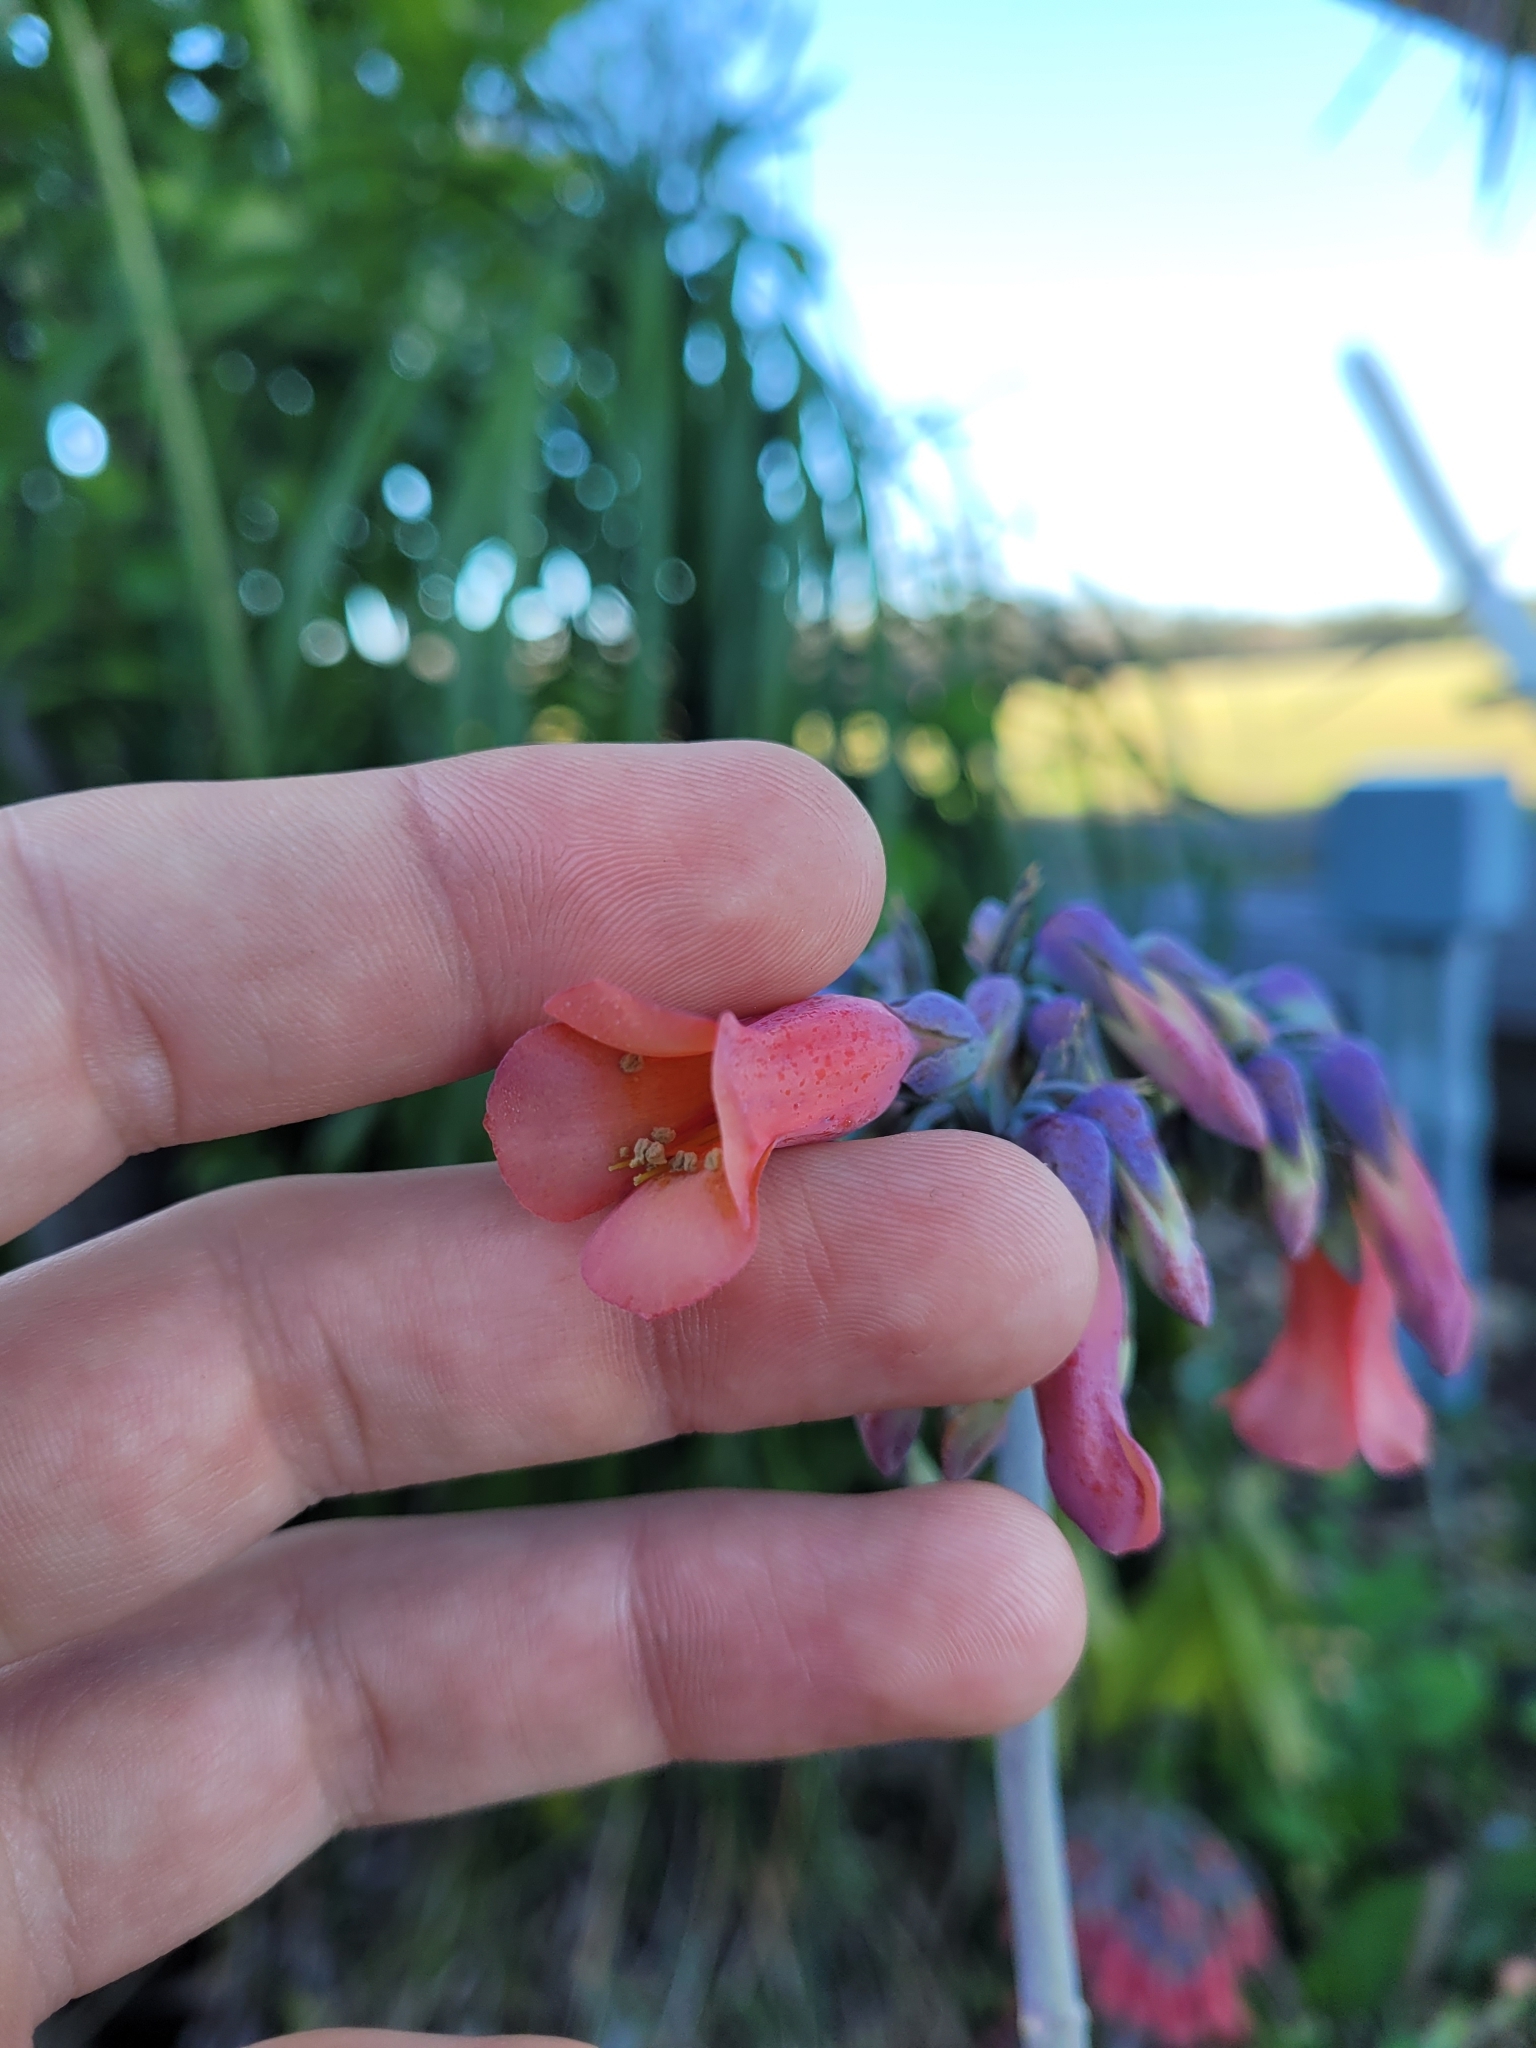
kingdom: Plantae
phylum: Tracheophyta
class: Magnoliopsida
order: Saxifragales
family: Crassulaceae
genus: Kalanchoe
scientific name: Kalanchoe delagoensis
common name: Chandelier plant
